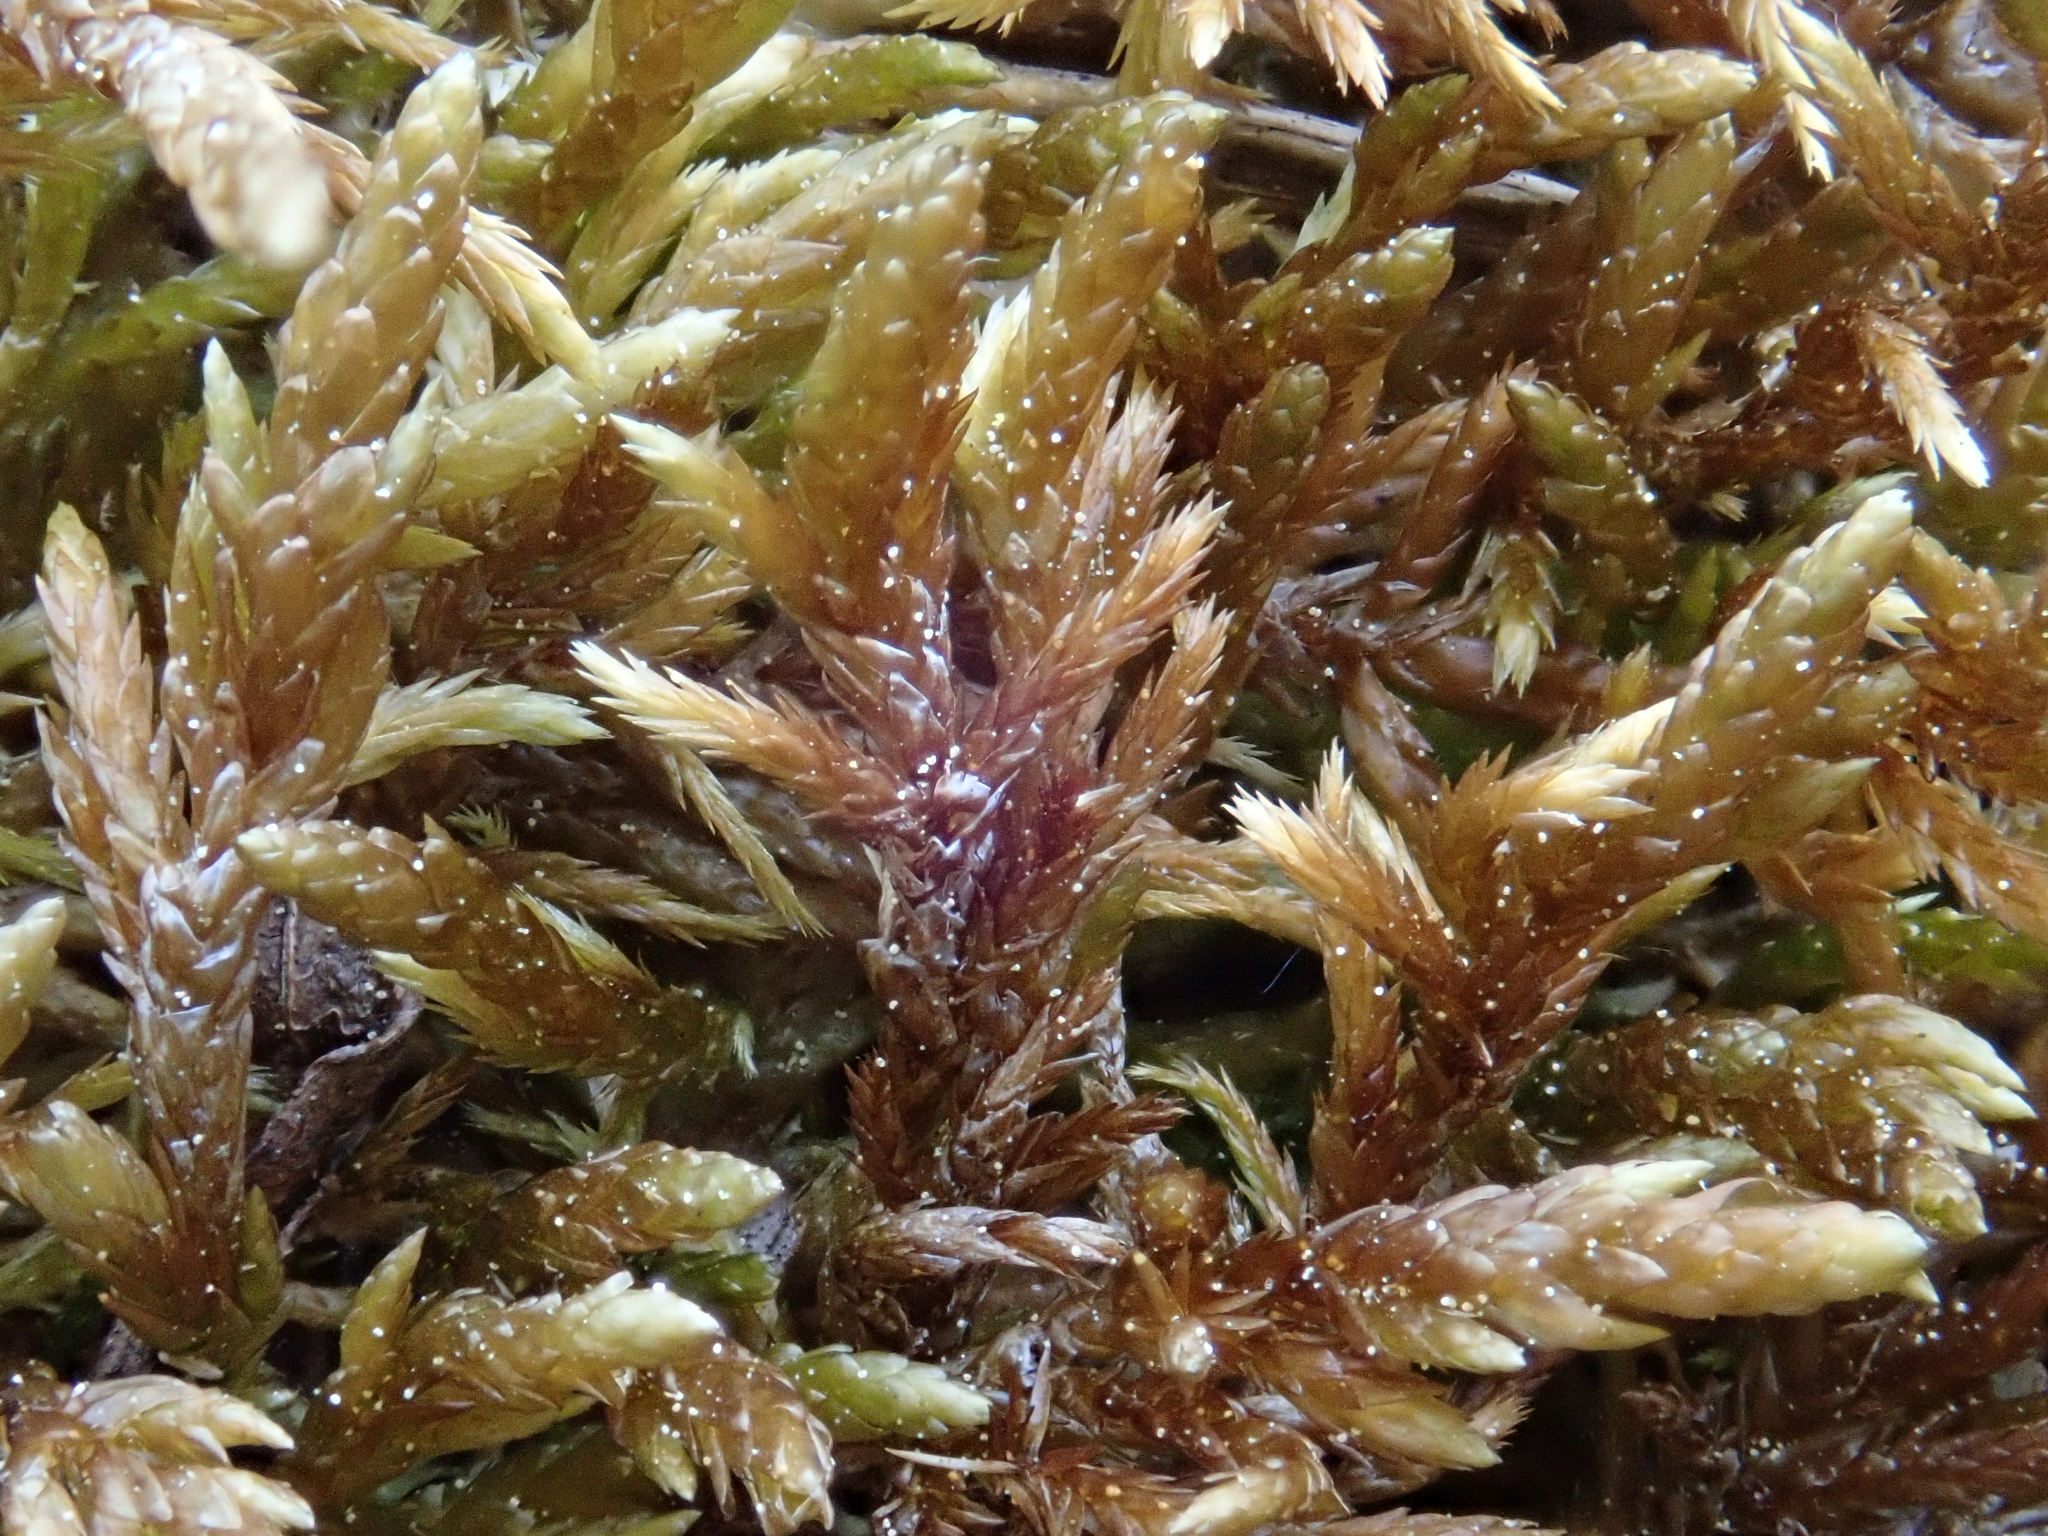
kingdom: Plantae
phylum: Bryophyta
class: Bryopsida
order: Hypnales
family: Entodontaceae
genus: Entodon
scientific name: Entodon concinnus
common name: Montagne's cylinder-moss
